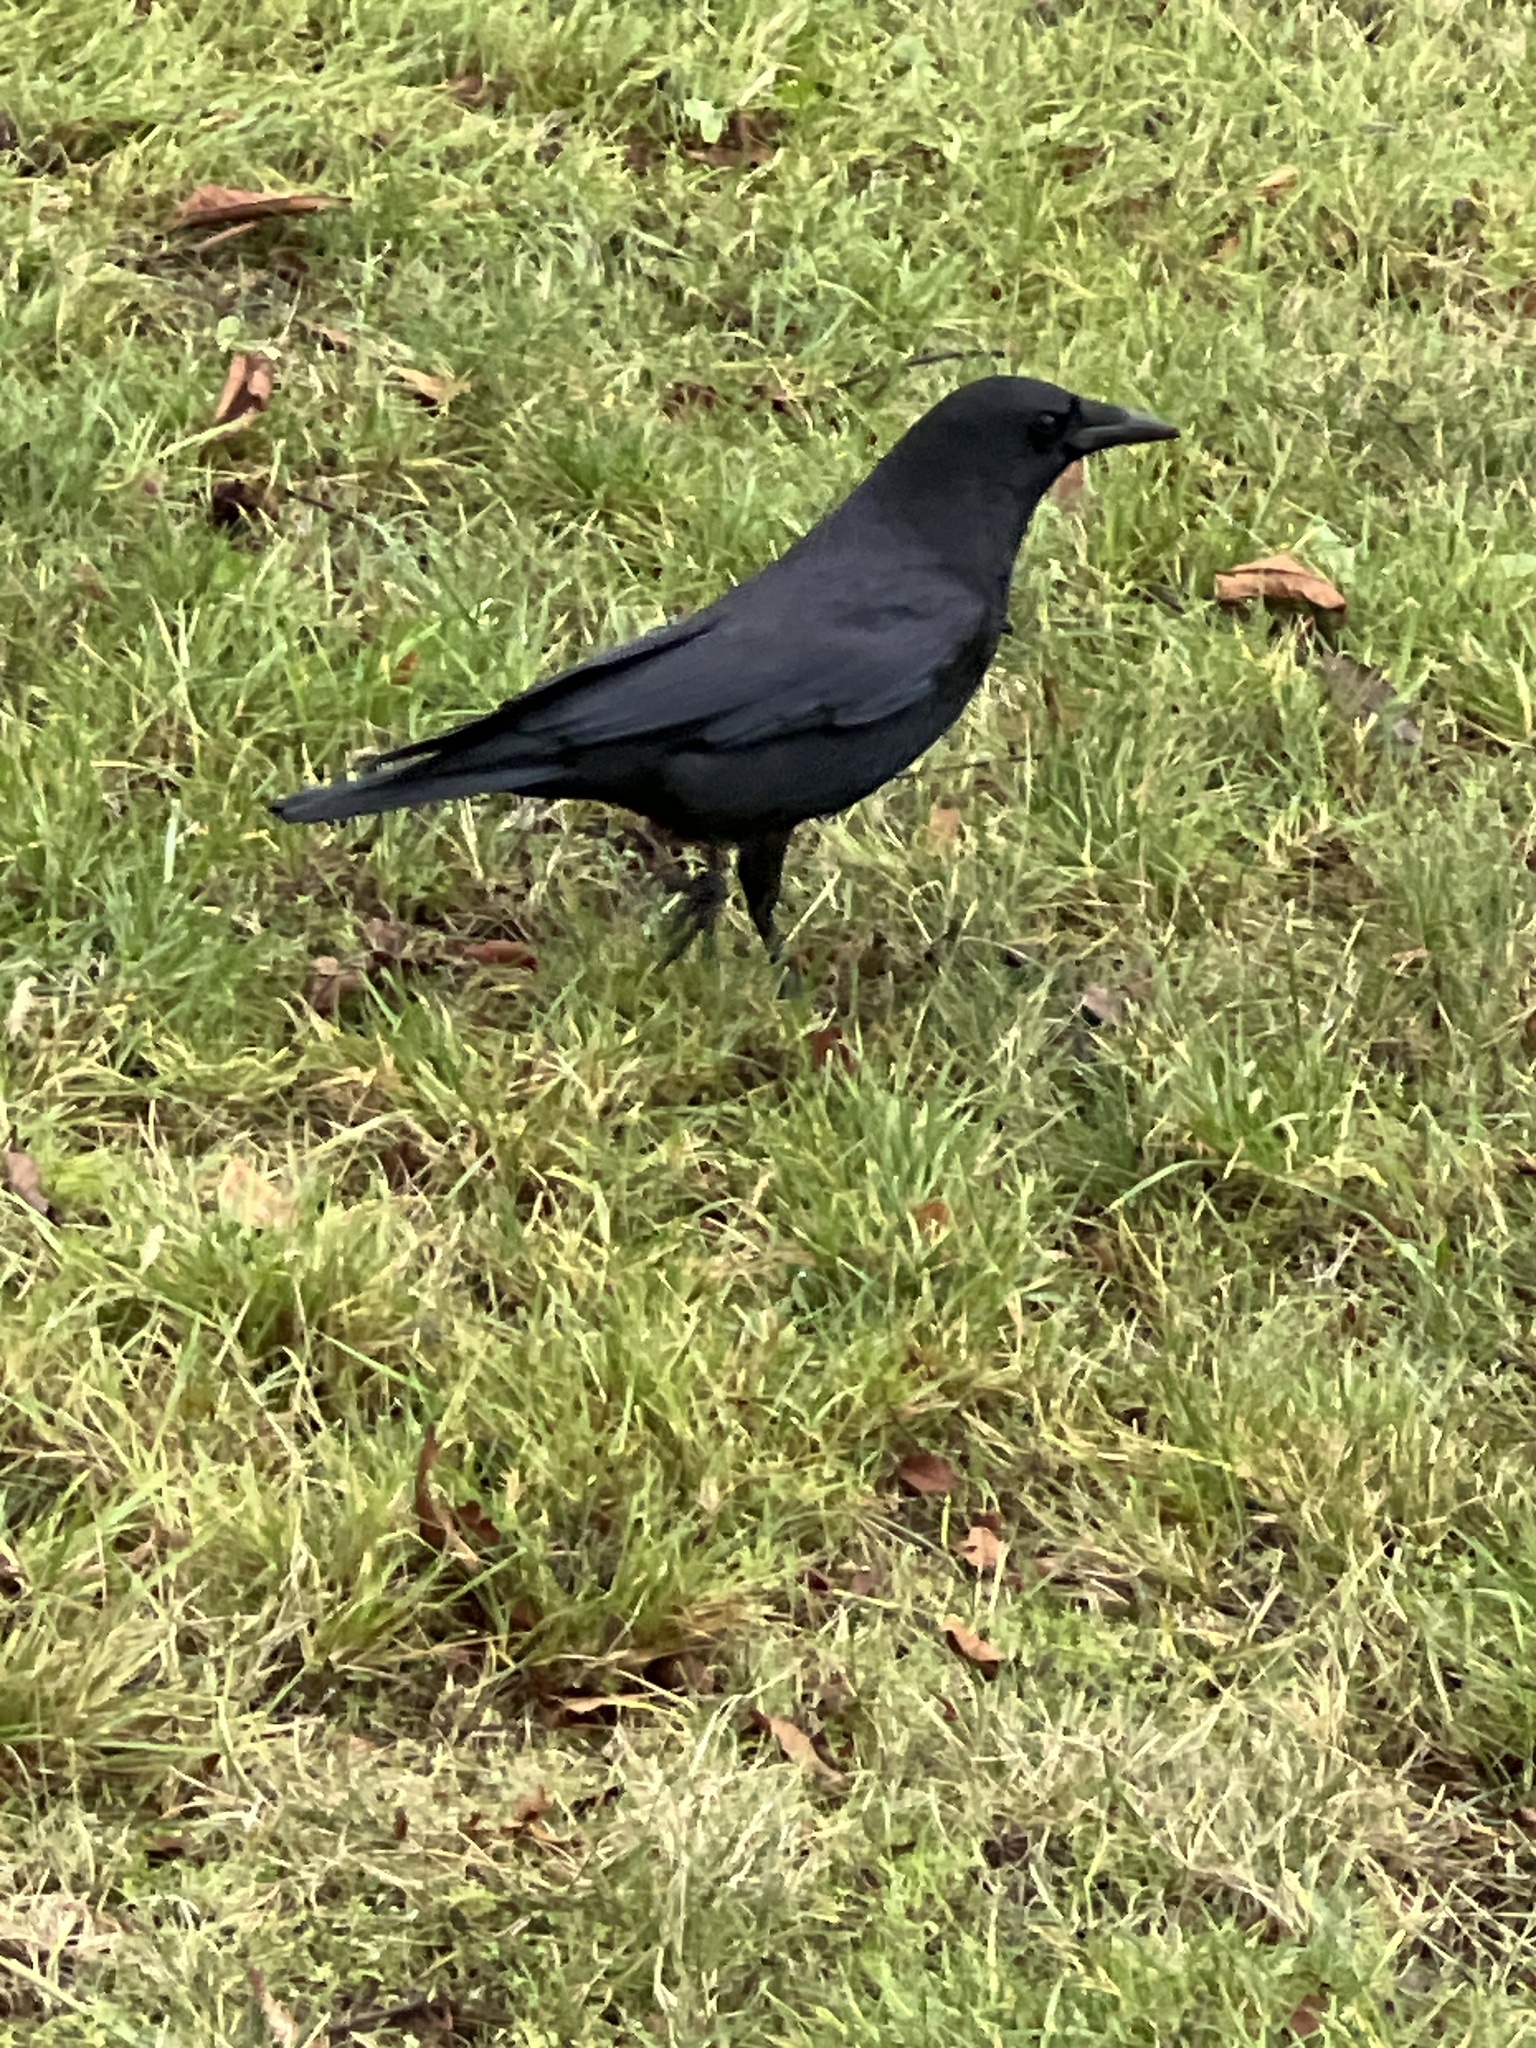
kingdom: Animalia
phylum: Chordata
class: Aves
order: Passeriformes
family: Corvidae
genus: Corvus
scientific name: Corvus brachyrhynchos
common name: American crow
